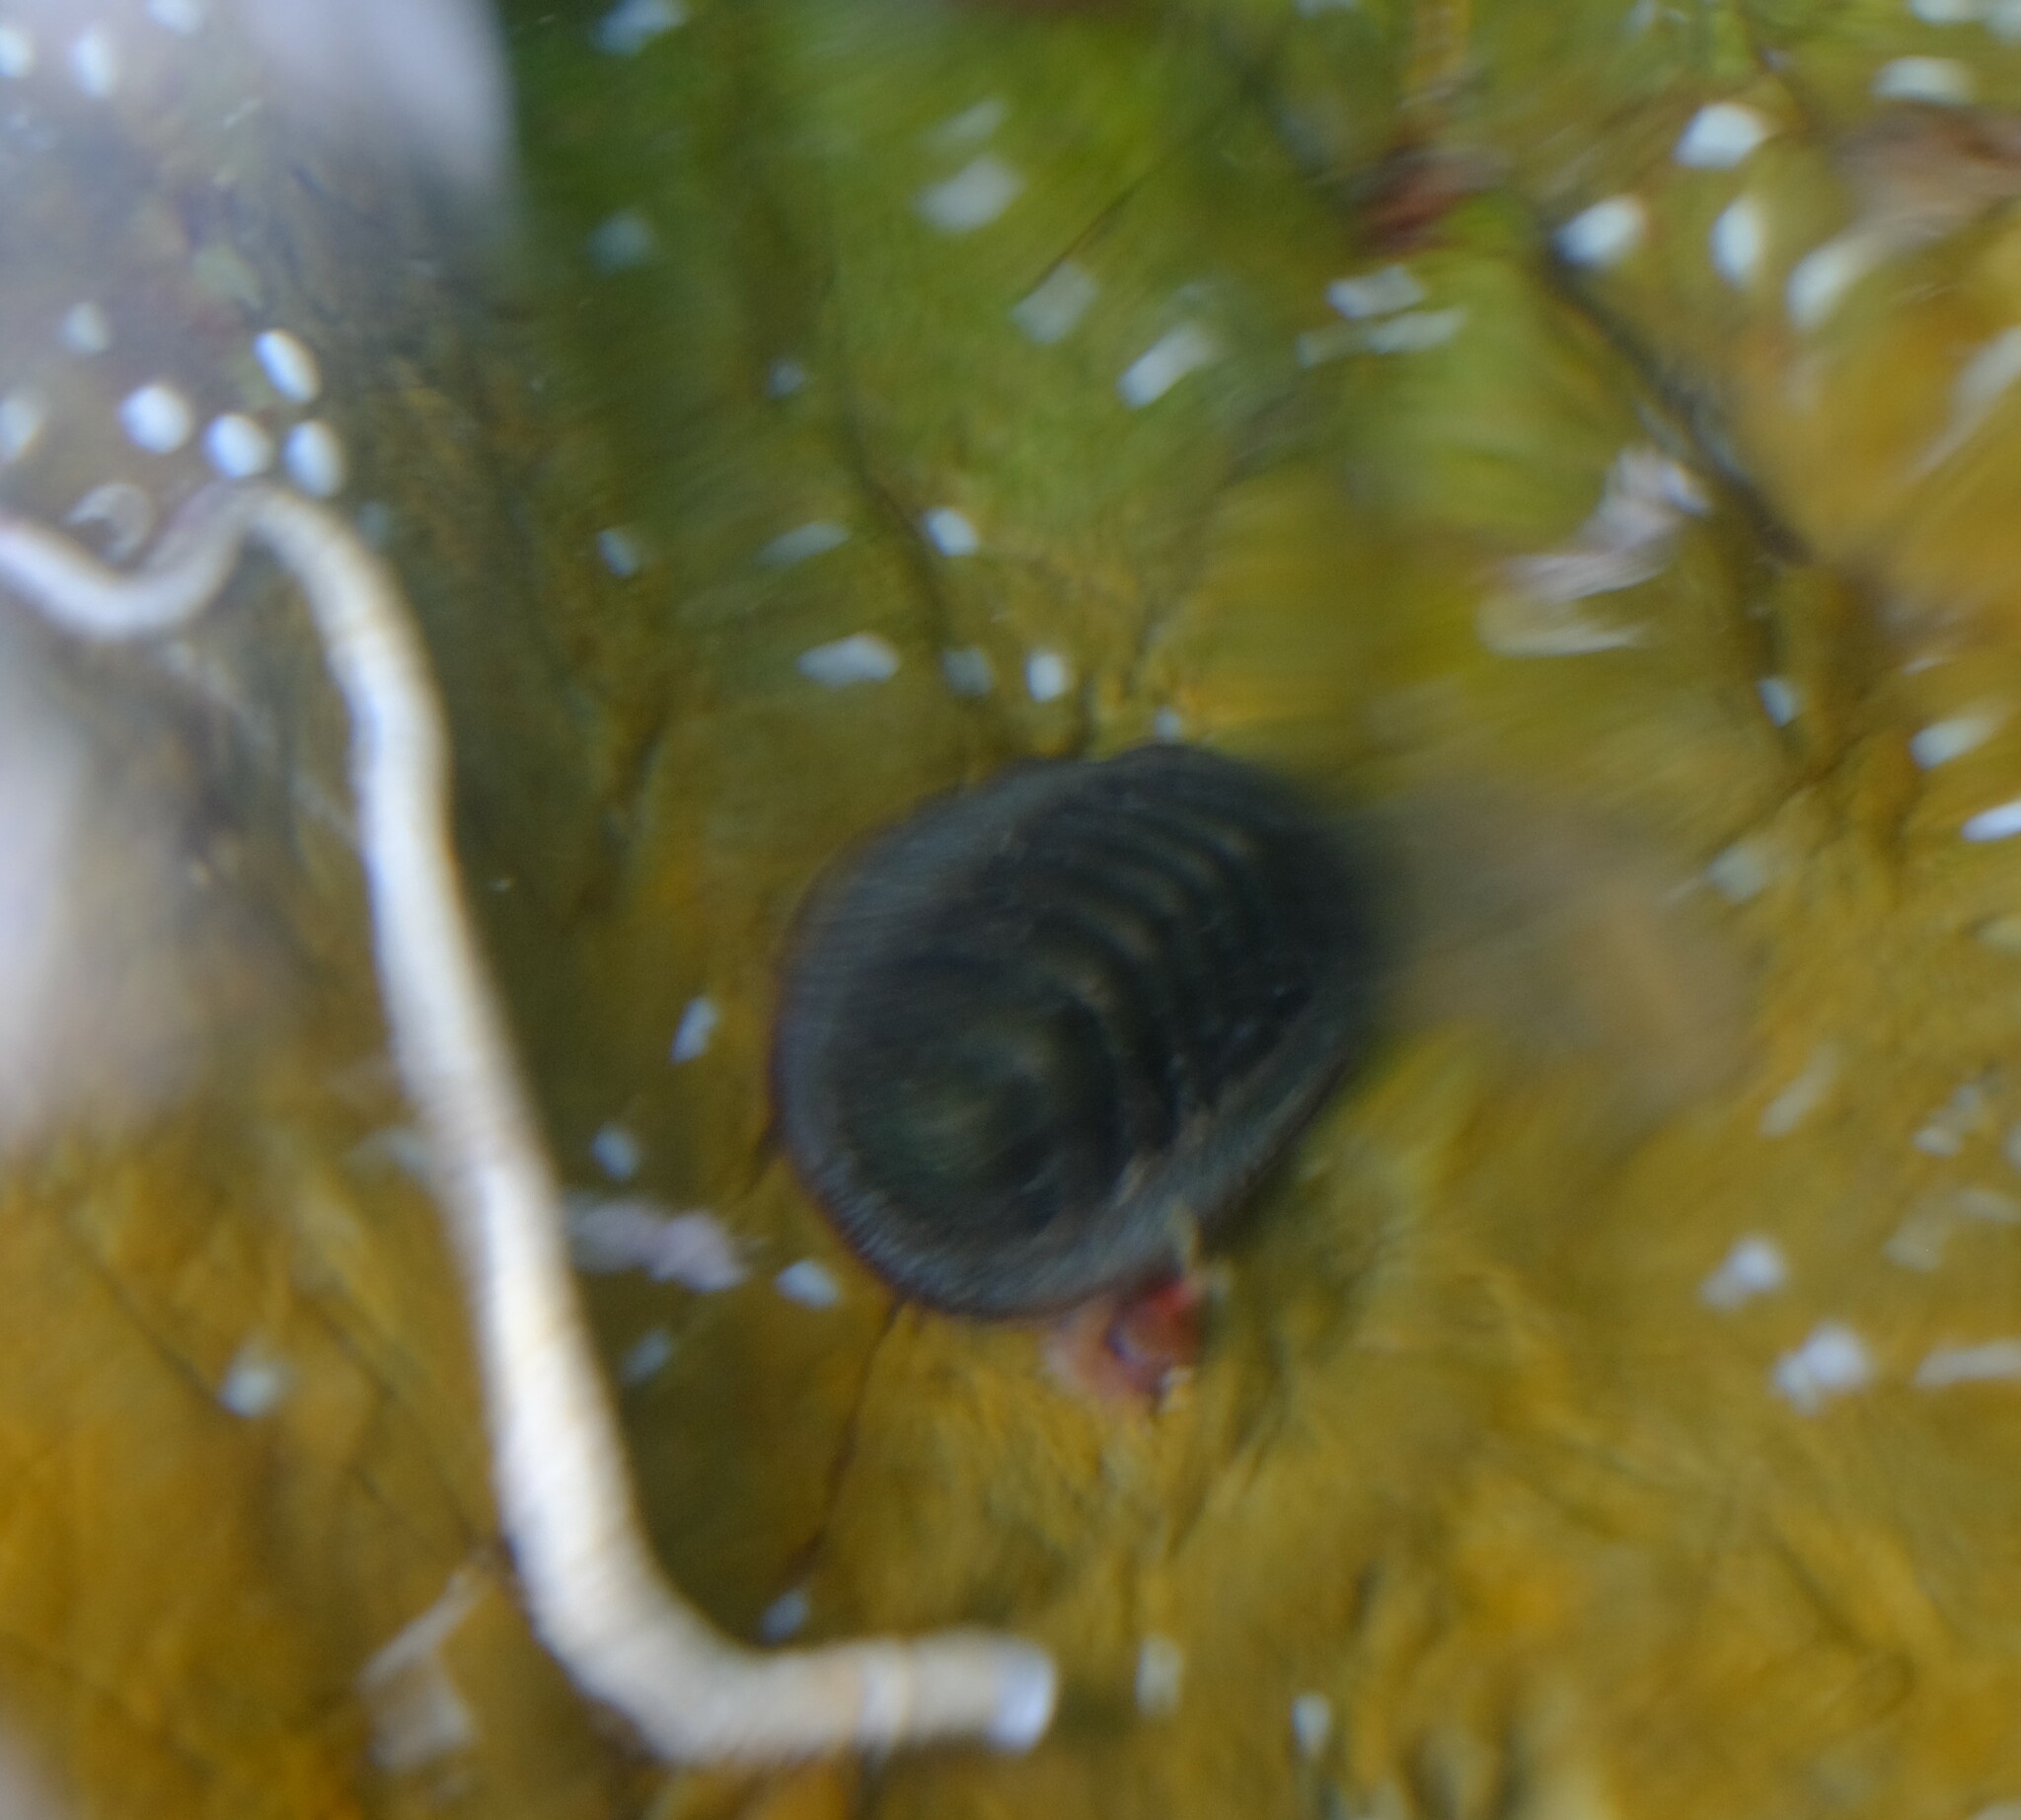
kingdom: Animalia
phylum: Mollusca
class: Polyplacophora
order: Chitonida
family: Ischnochitonidae
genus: Ischnochiton
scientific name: Ischnochiton australis
